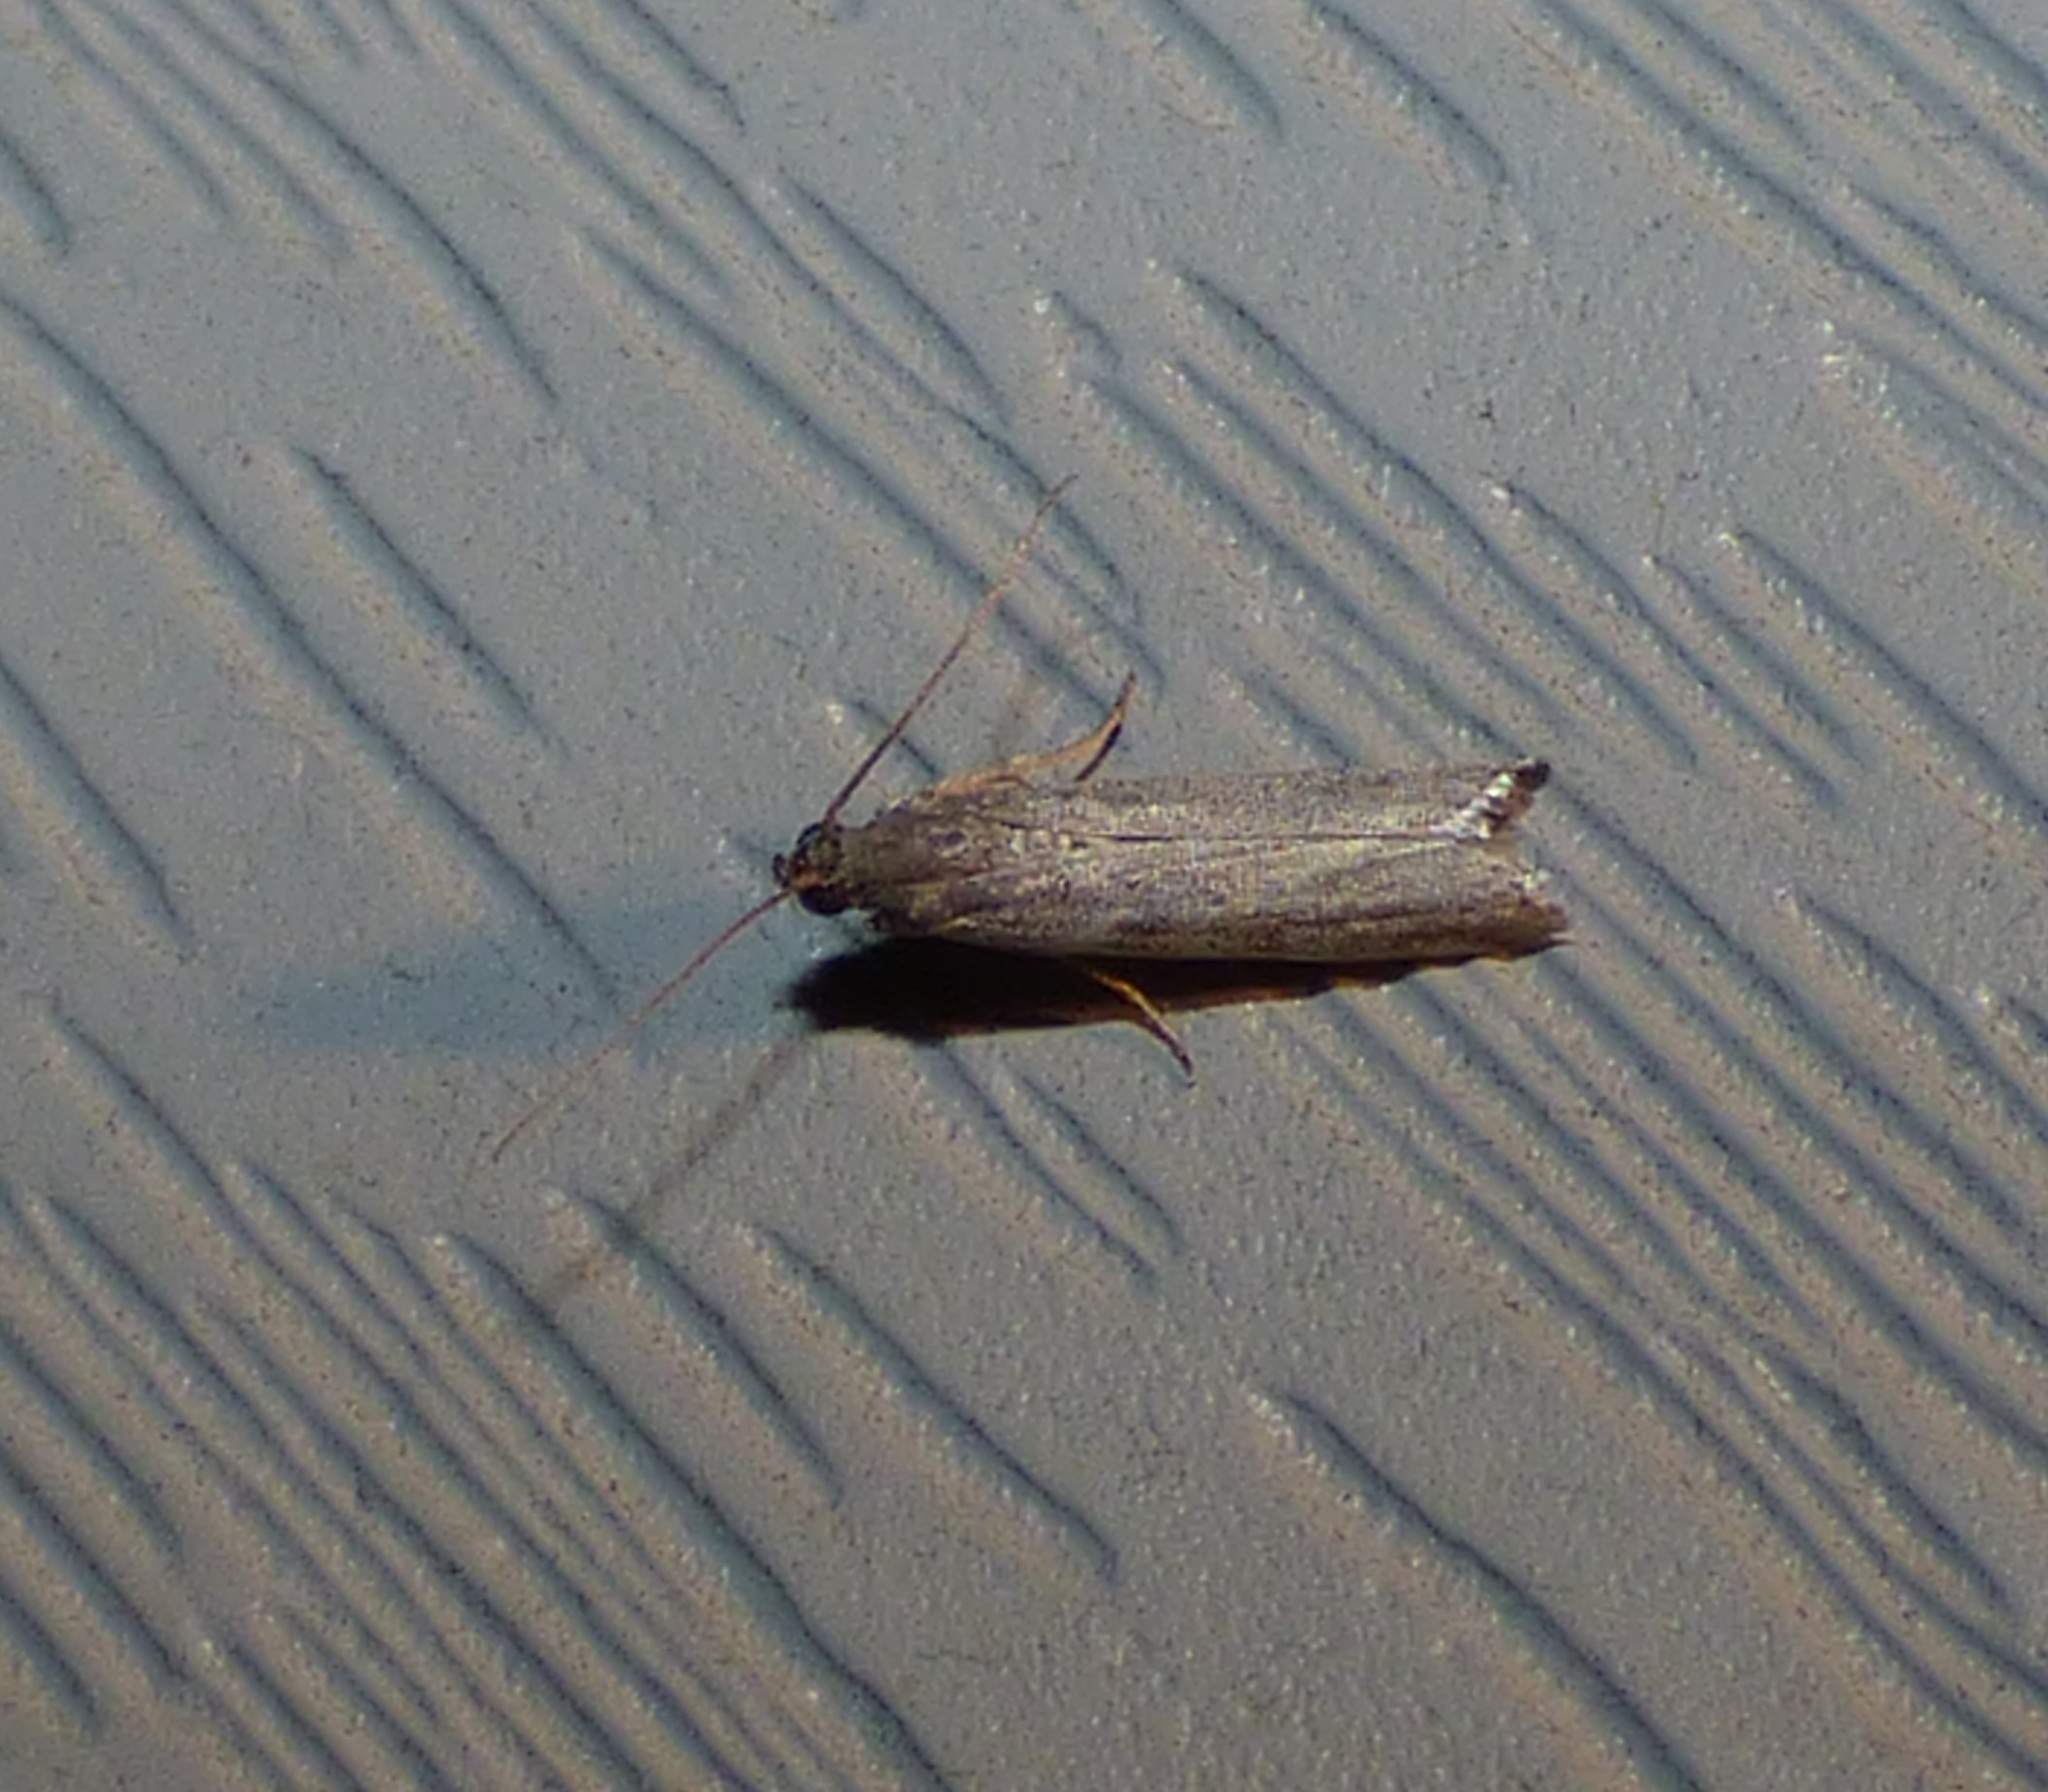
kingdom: Animalia
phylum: Arthropoda
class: Insecta
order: Lepidoptera
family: Pyralidae
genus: Homoeosoma
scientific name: Homoeosoma electella
